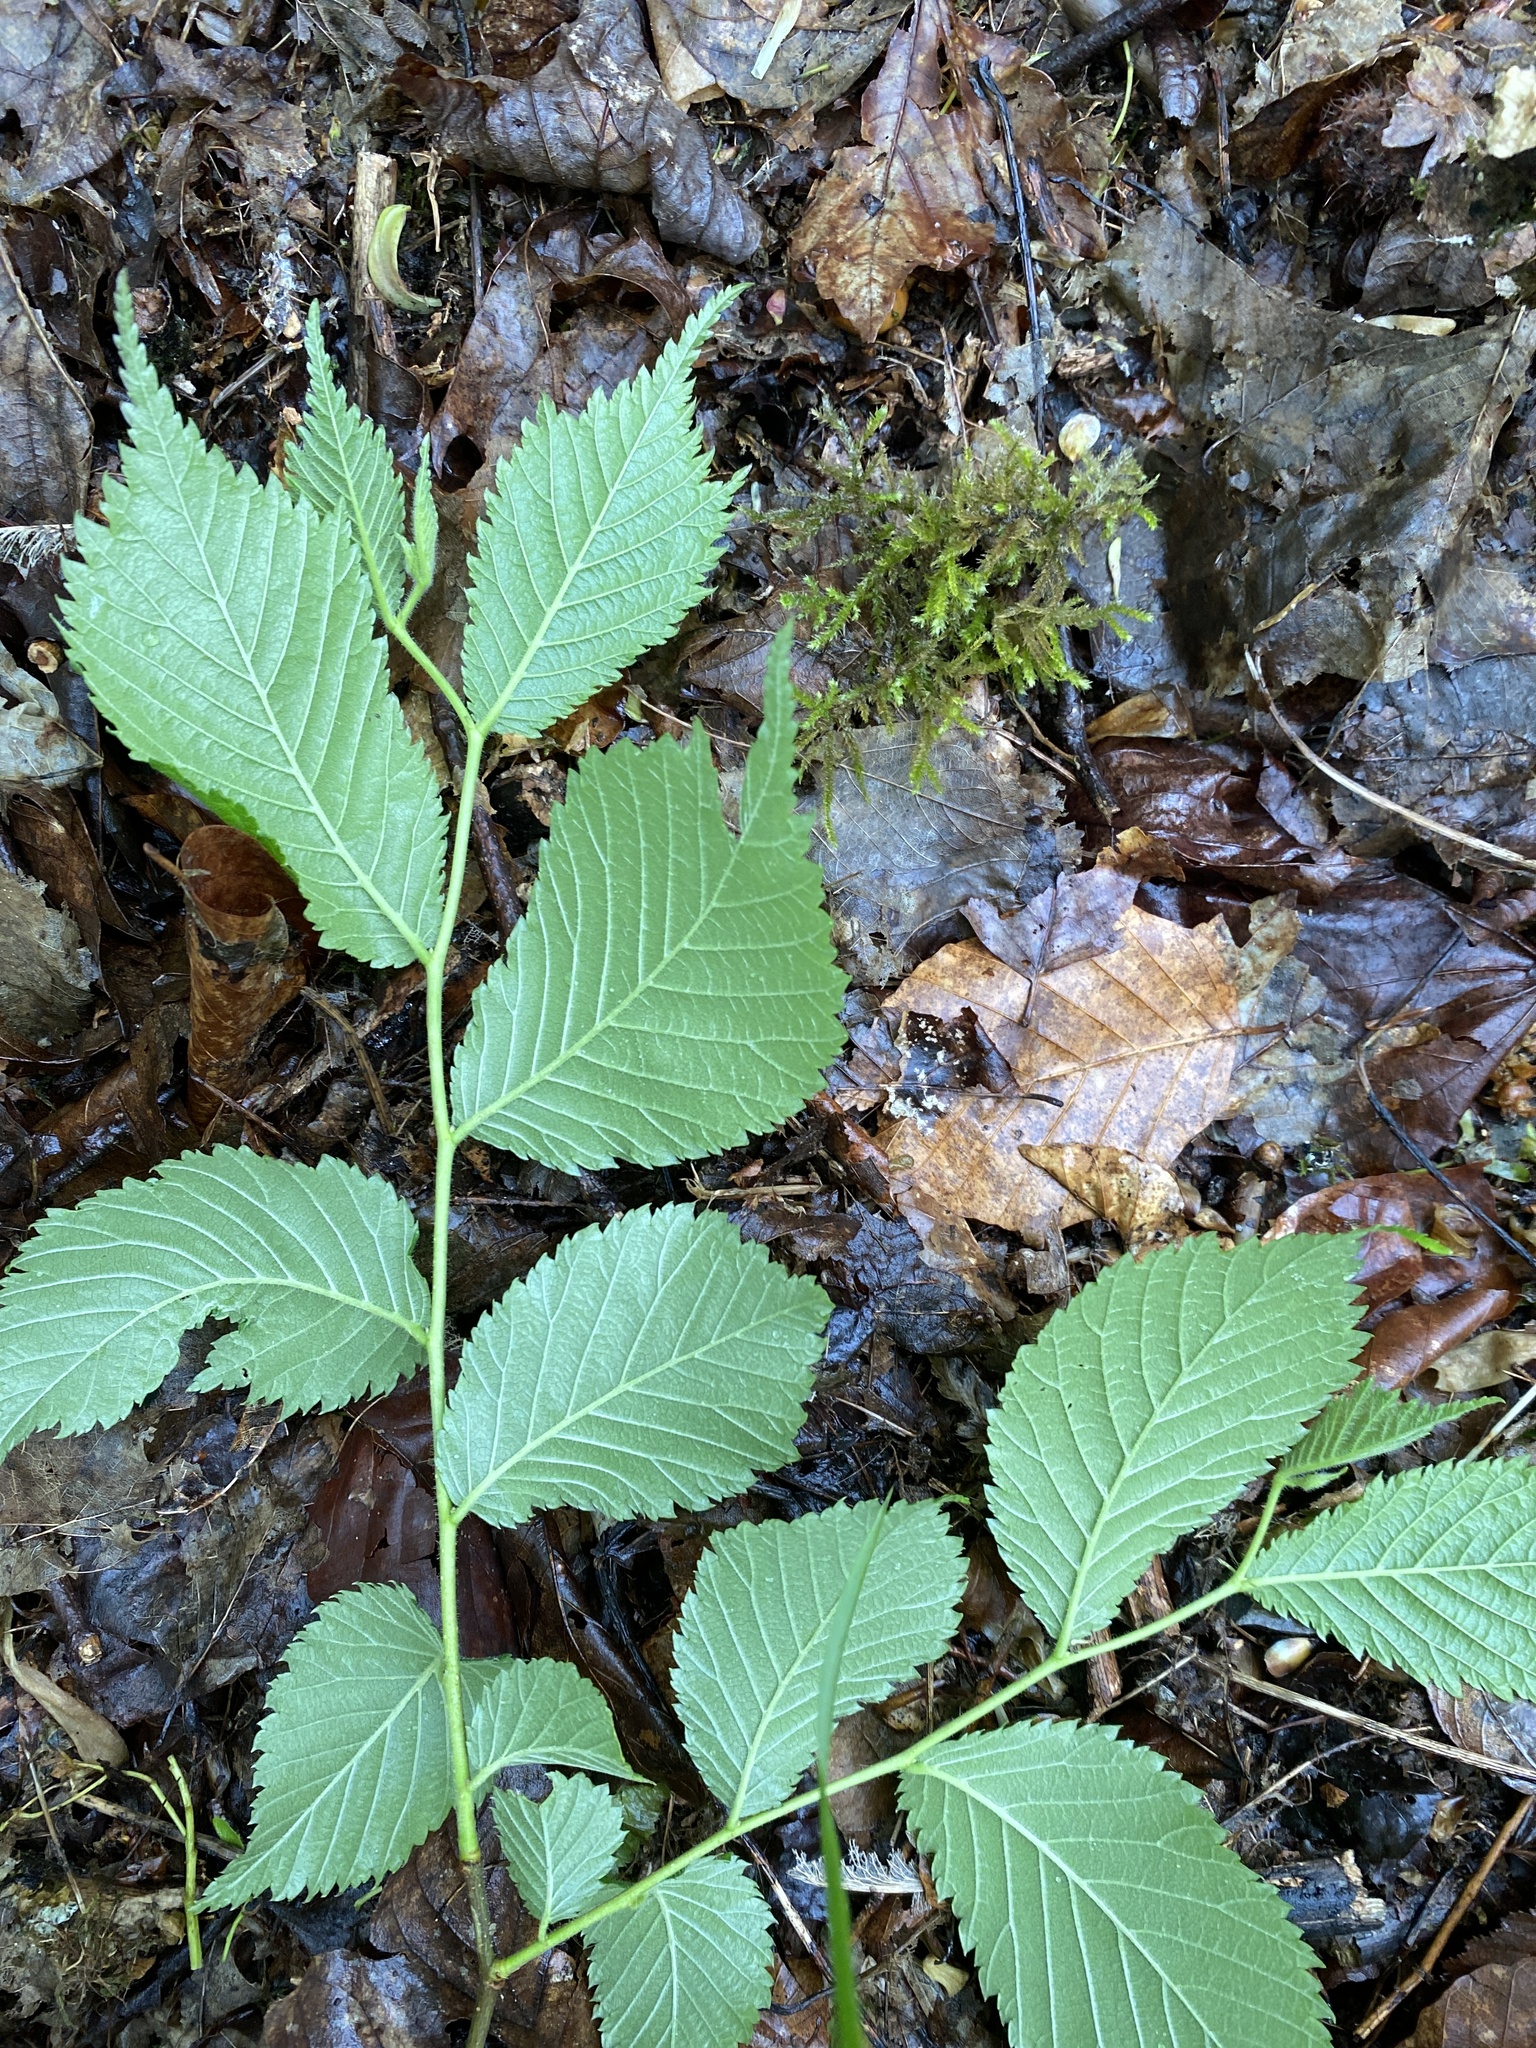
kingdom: Plantae
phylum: Tracheophyta
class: Magnoliopsida
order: Rosales
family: Ulmaceae
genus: Ulmus
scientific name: Ulmus glabra
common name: Wych elm
